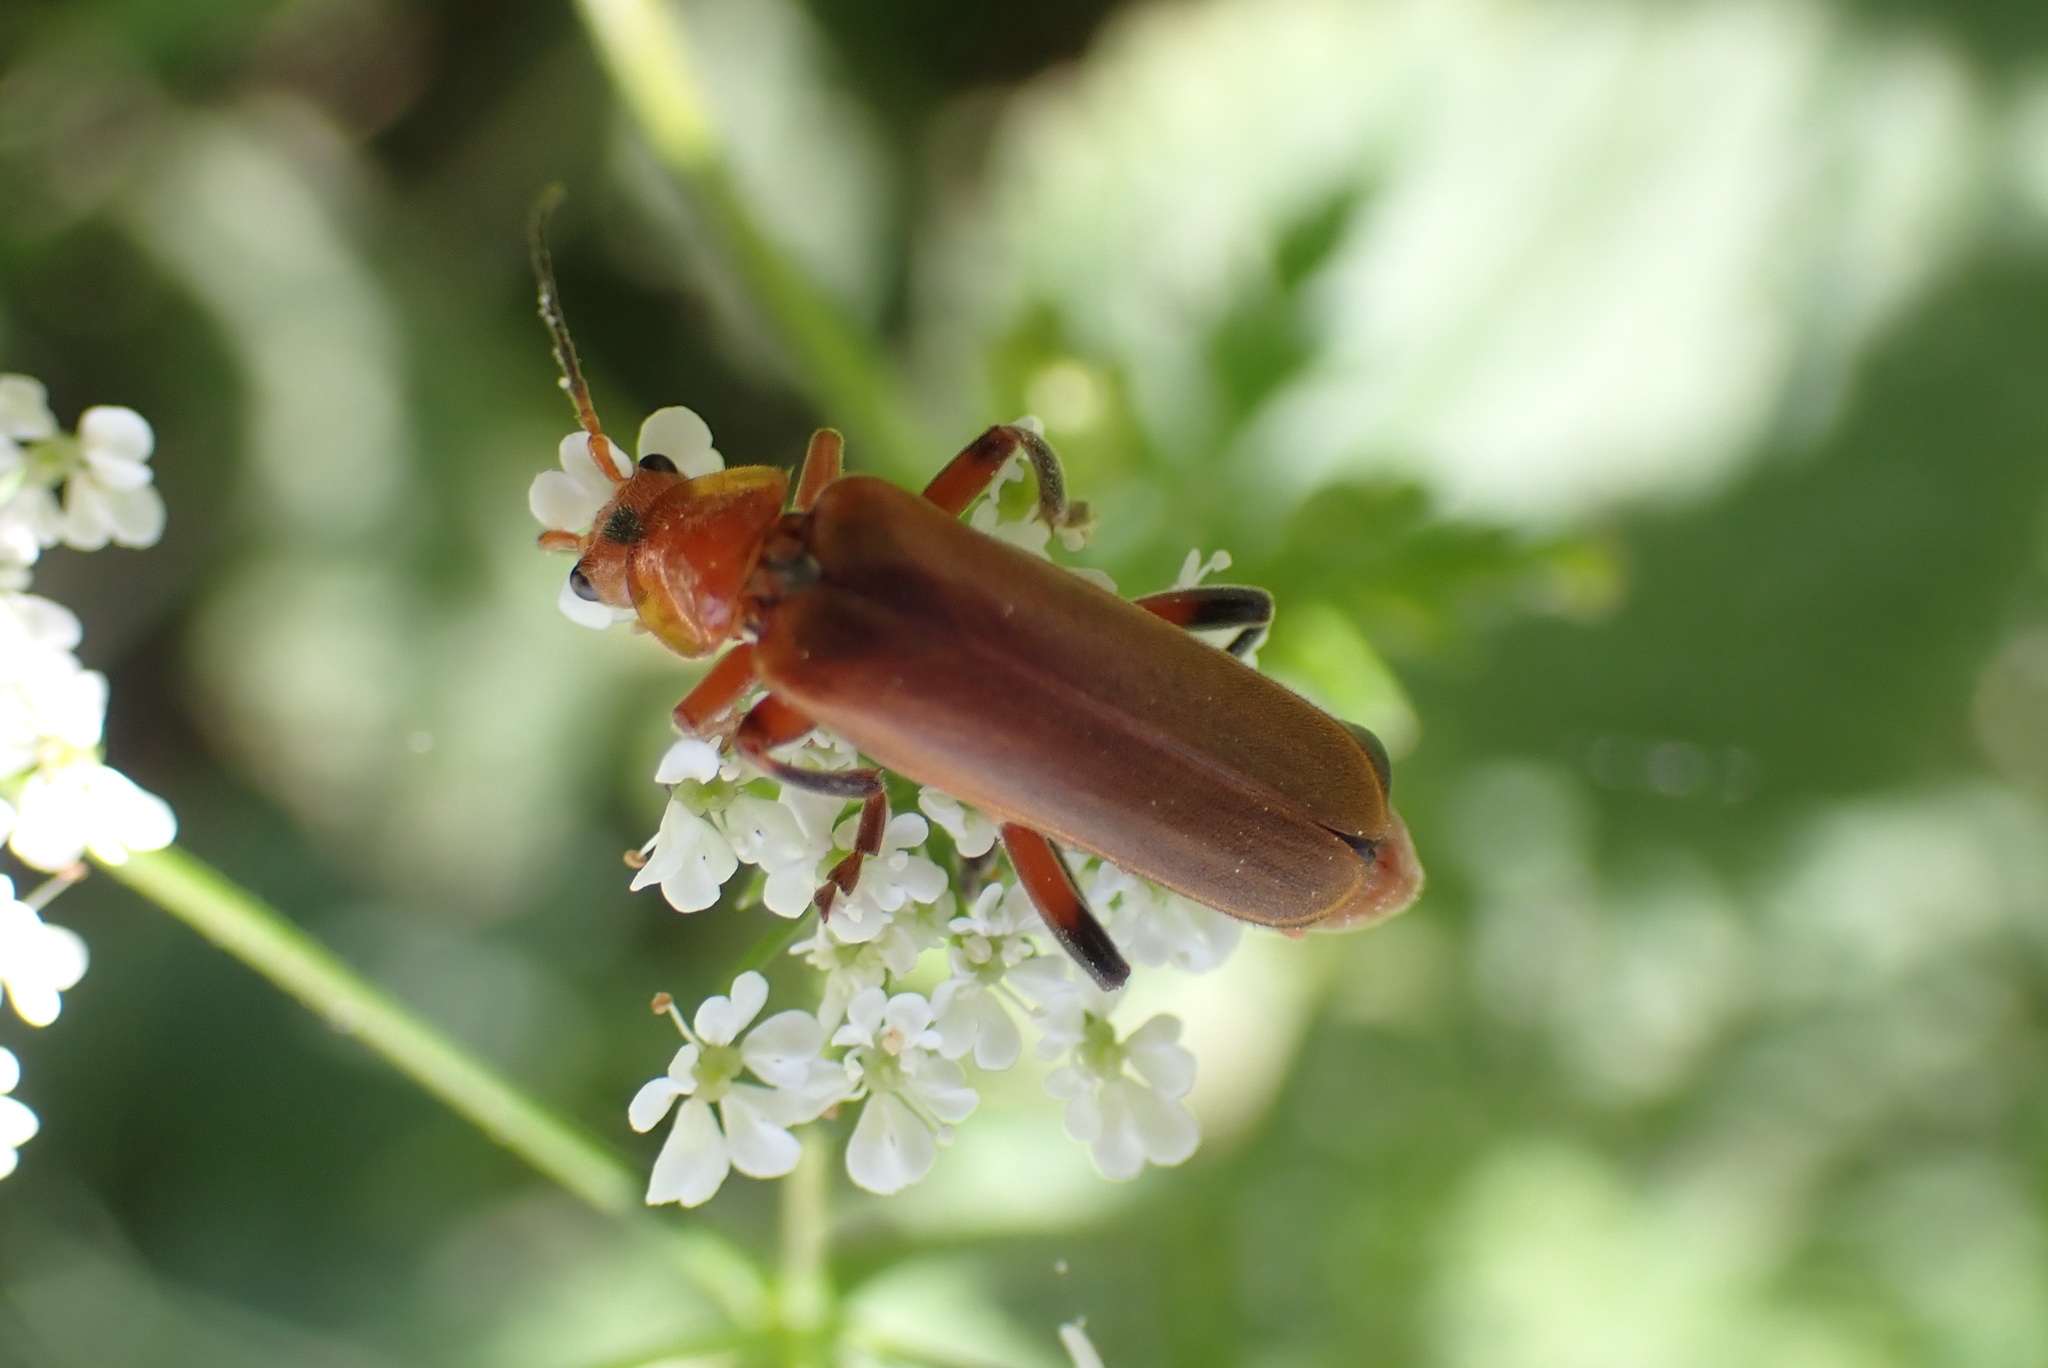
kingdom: Animalia
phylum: Arthropoda
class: Insecta
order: Coleoptera
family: Cantharidae
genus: Cantharis
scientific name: Cantharis livida
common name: Livid soldier beetle
